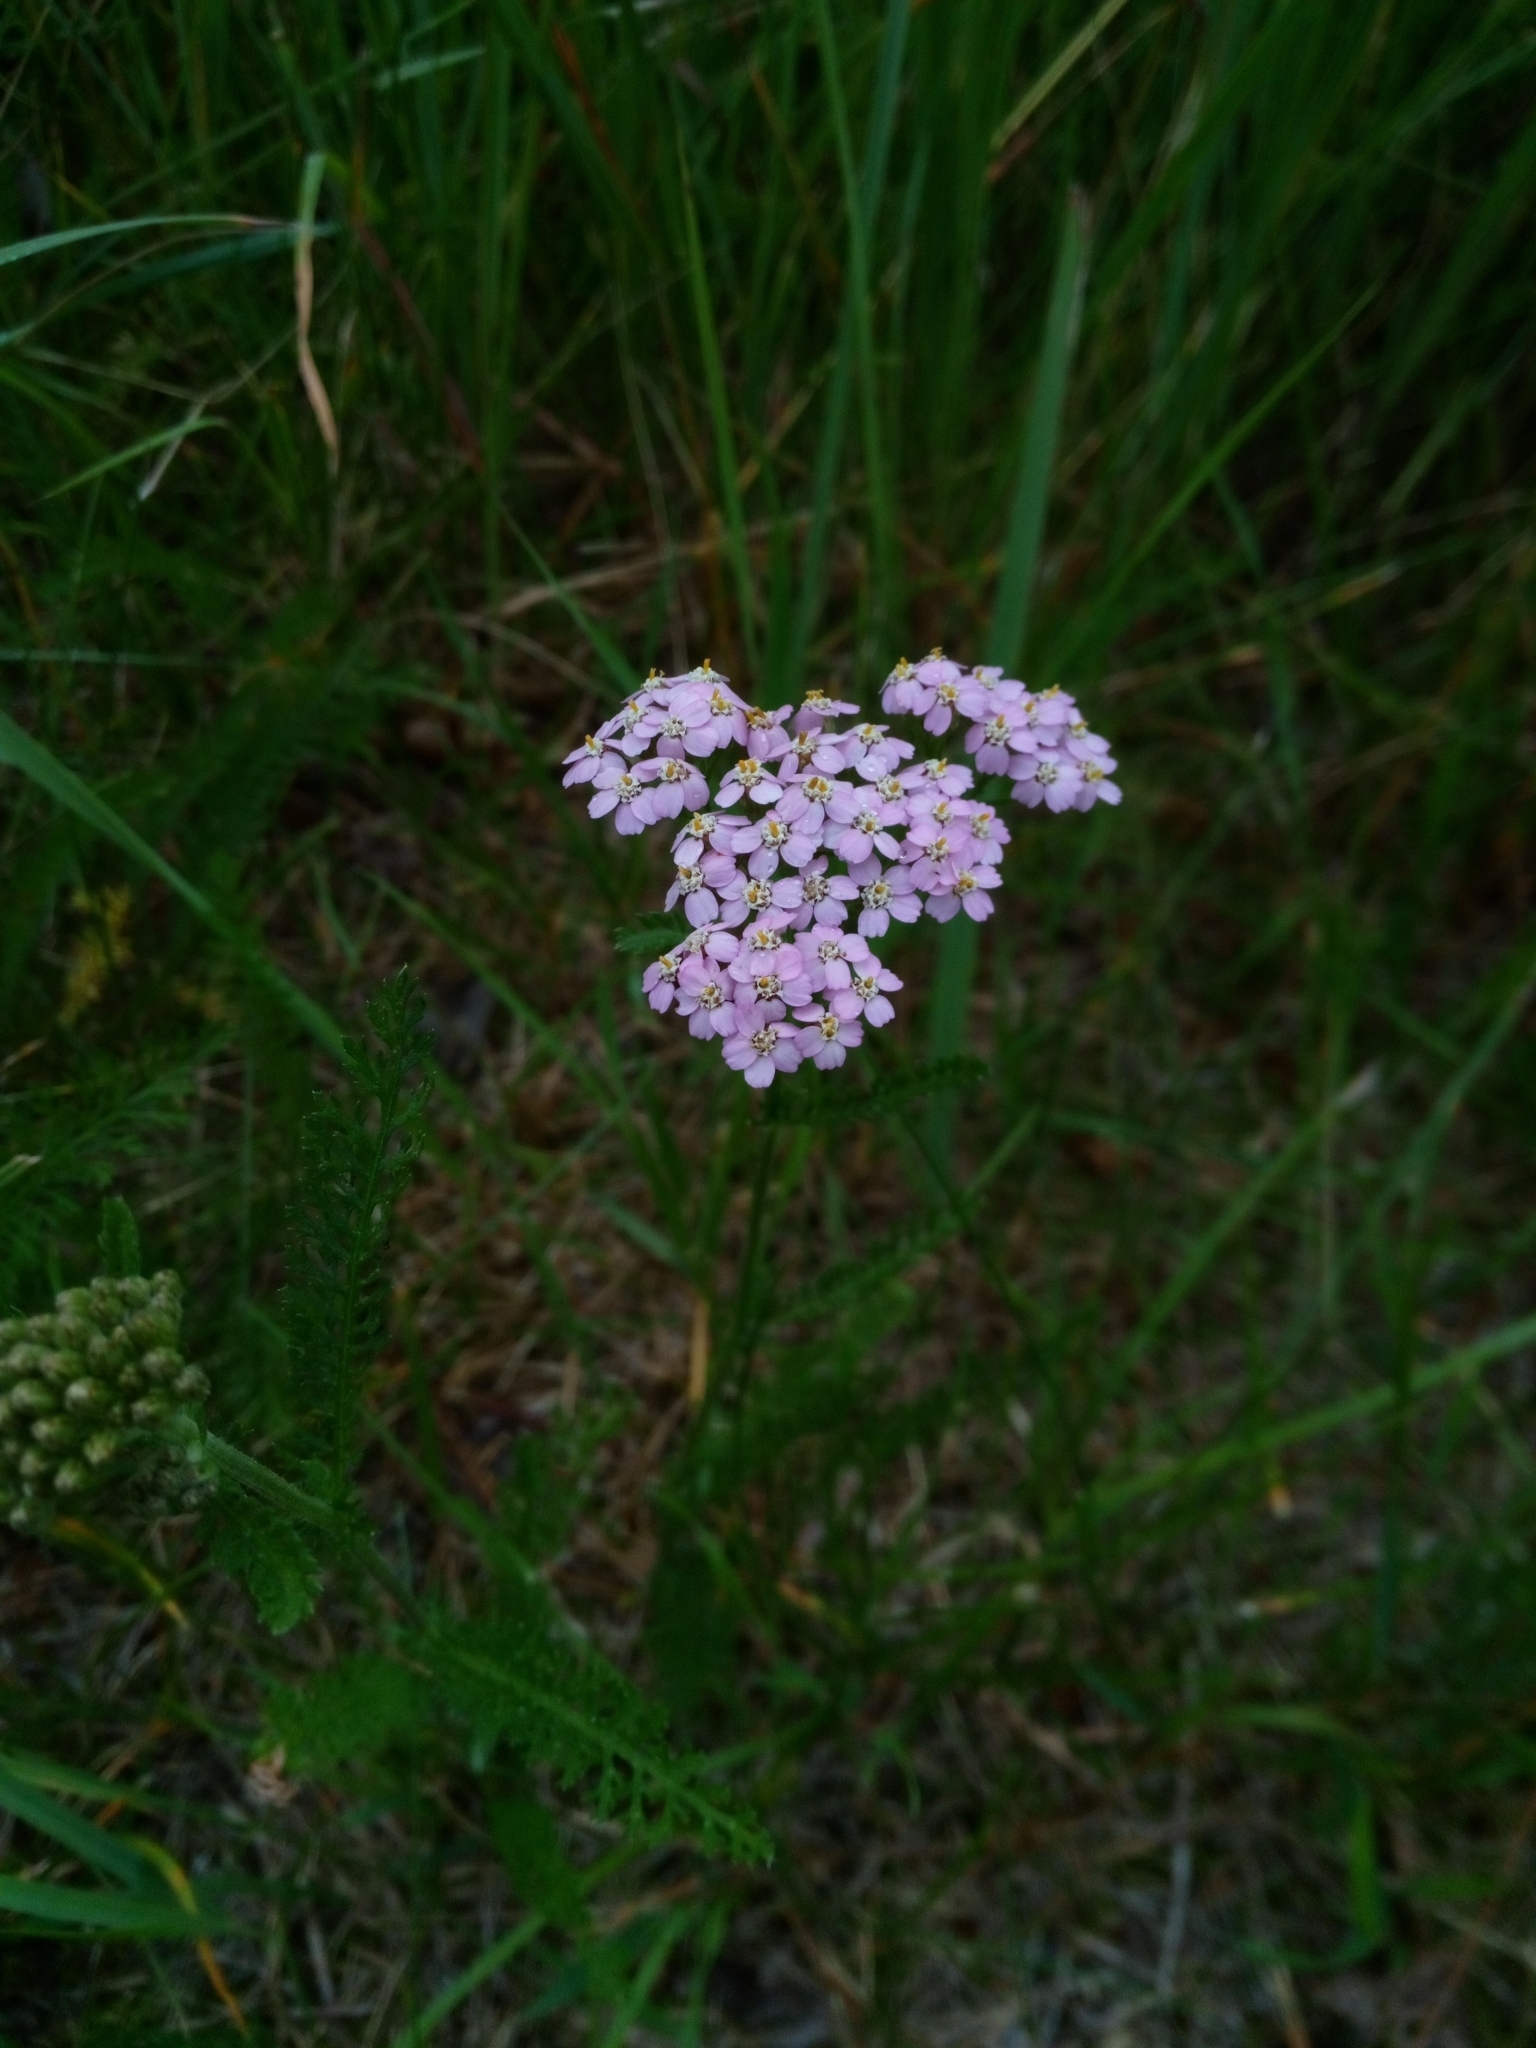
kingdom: Plantae
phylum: Tracheophyta
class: Magnoliopsida
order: Asterales
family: Asteraceae
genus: Achillea
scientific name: Achillea millefolium
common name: Yarrow
